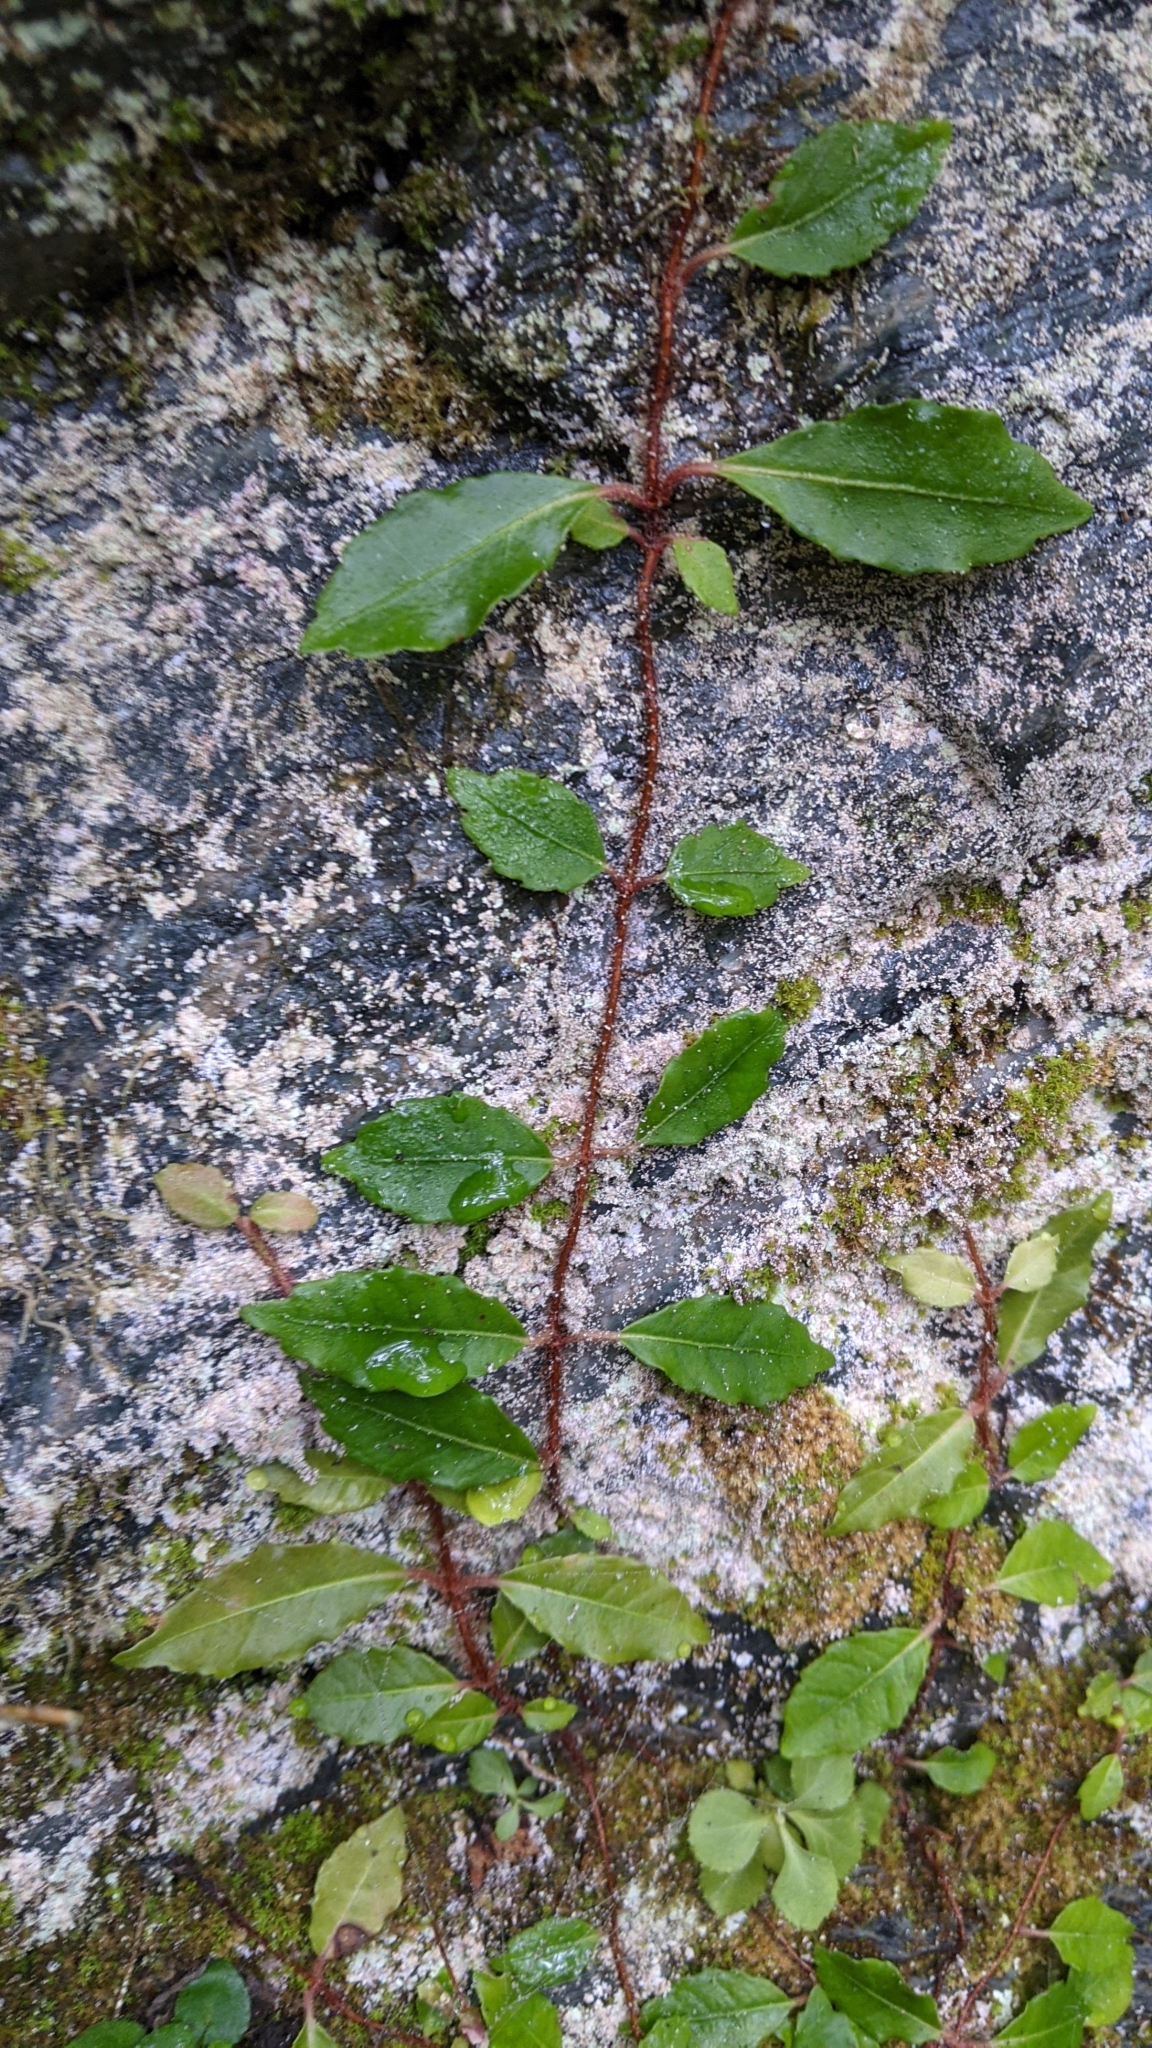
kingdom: Plantae
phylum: Tracheophyta
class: Magnoliopsida
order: Cornales
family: Hydrangeaceae
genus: Hydrangea
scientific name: Hydrangea integrifolia
